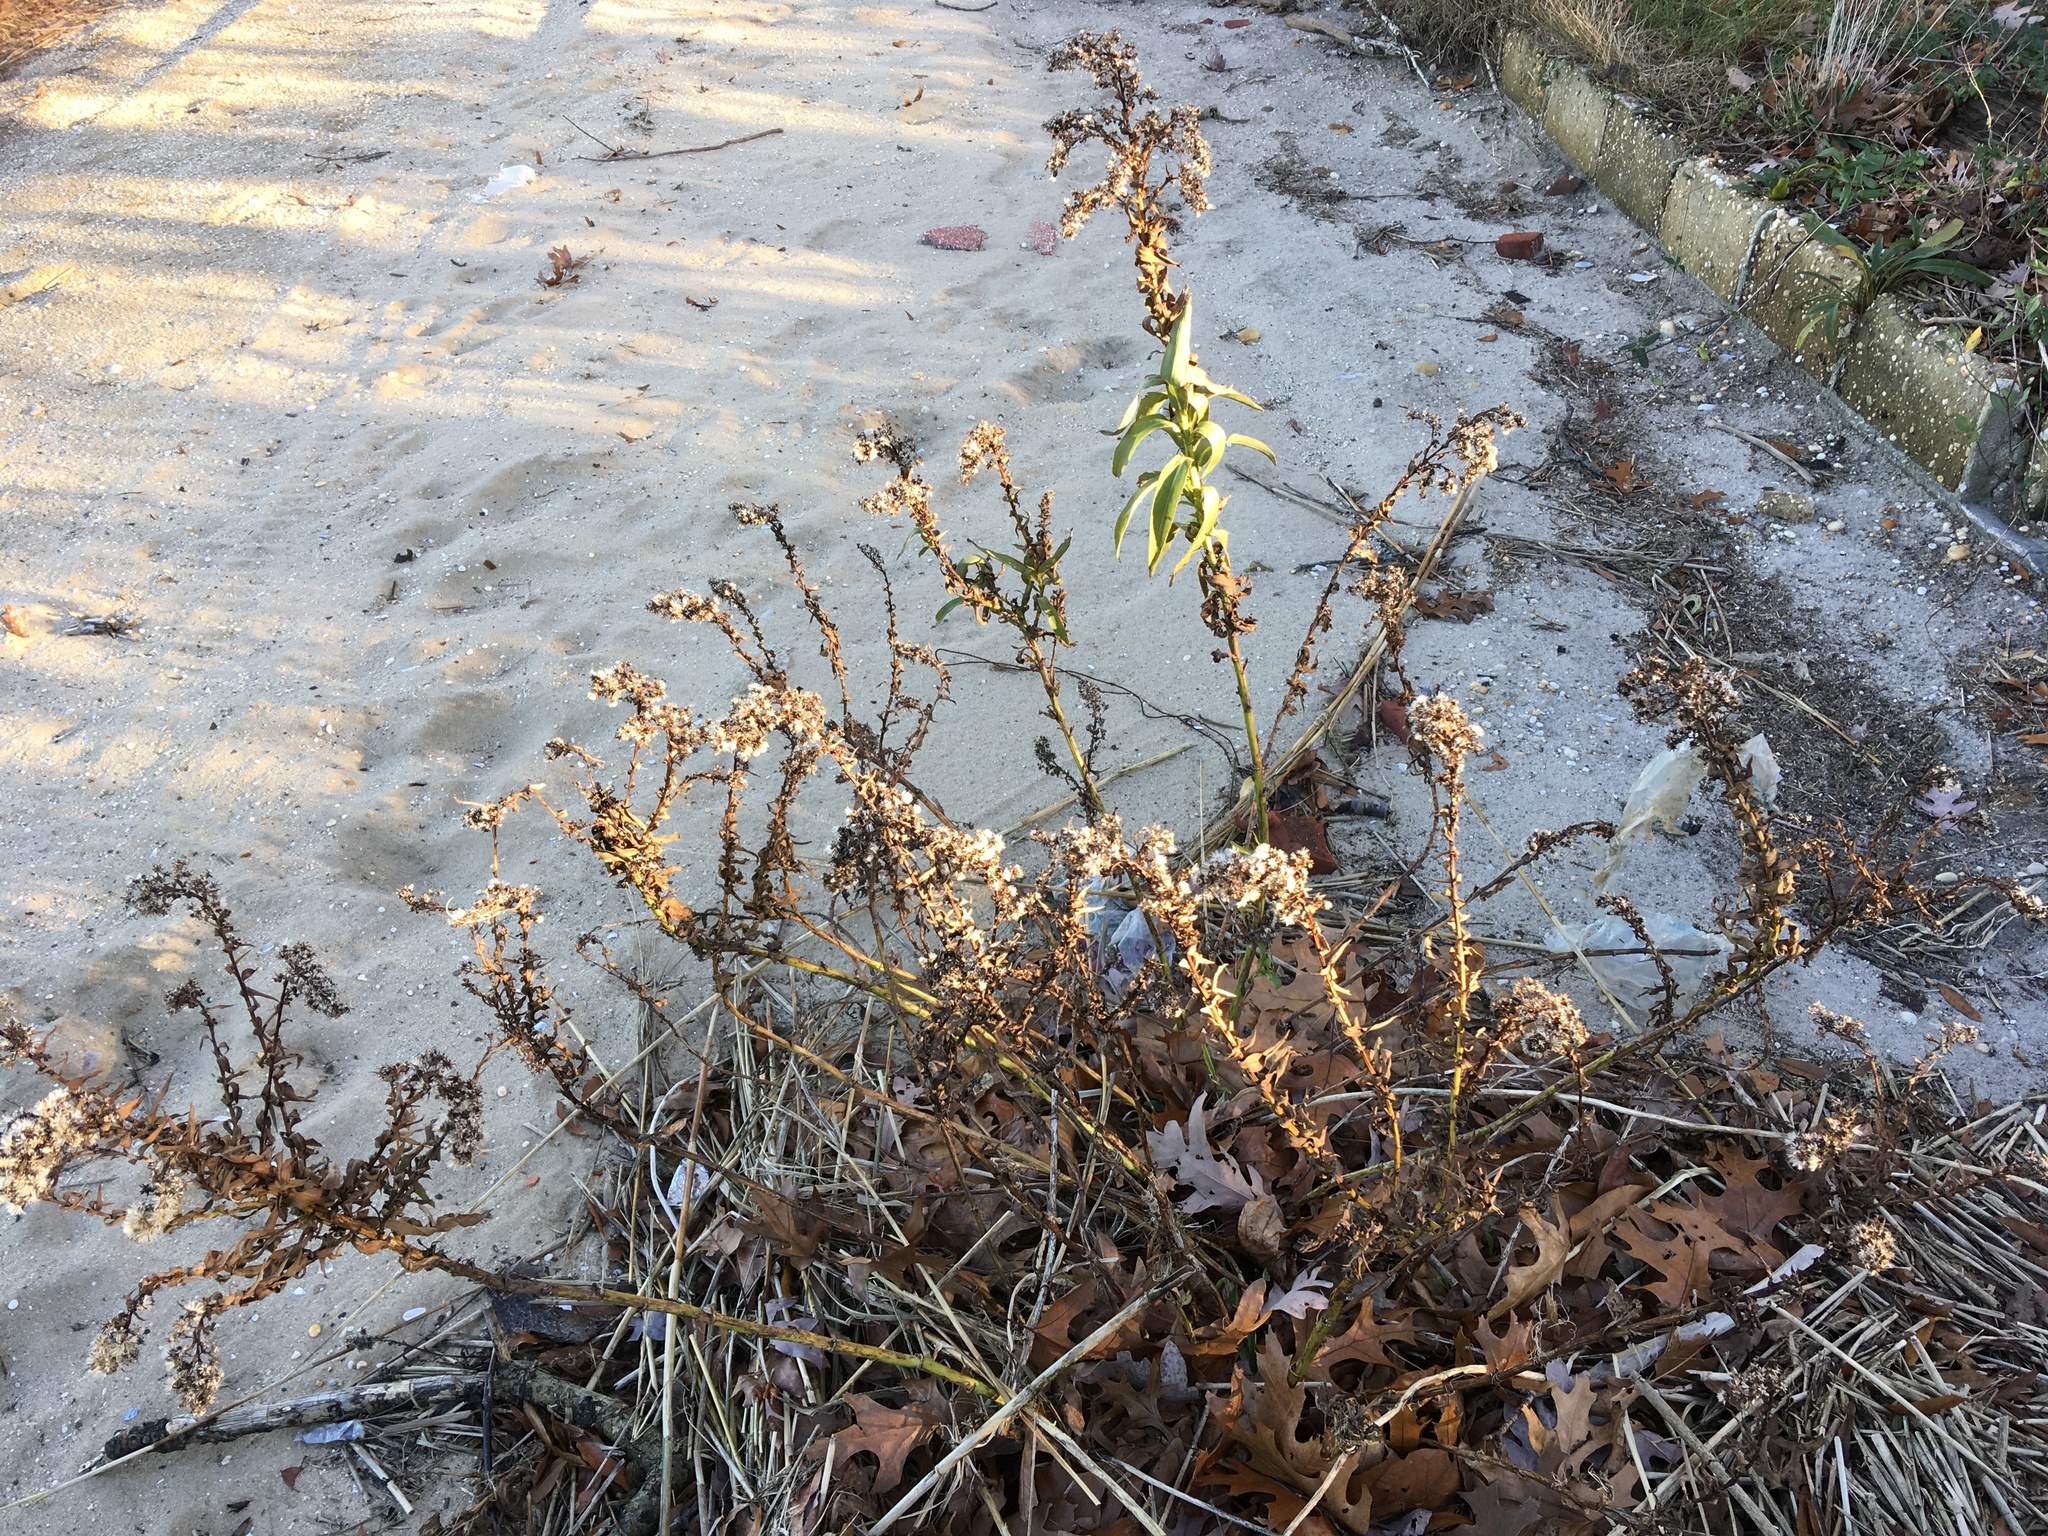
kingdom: Plantae
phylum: Tracheophyta
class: Magnoliopsida
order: Asterales
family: Asteraceae
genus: Solidago
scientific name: Solidago sempervirens
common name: Salt-marsh goldenrod
